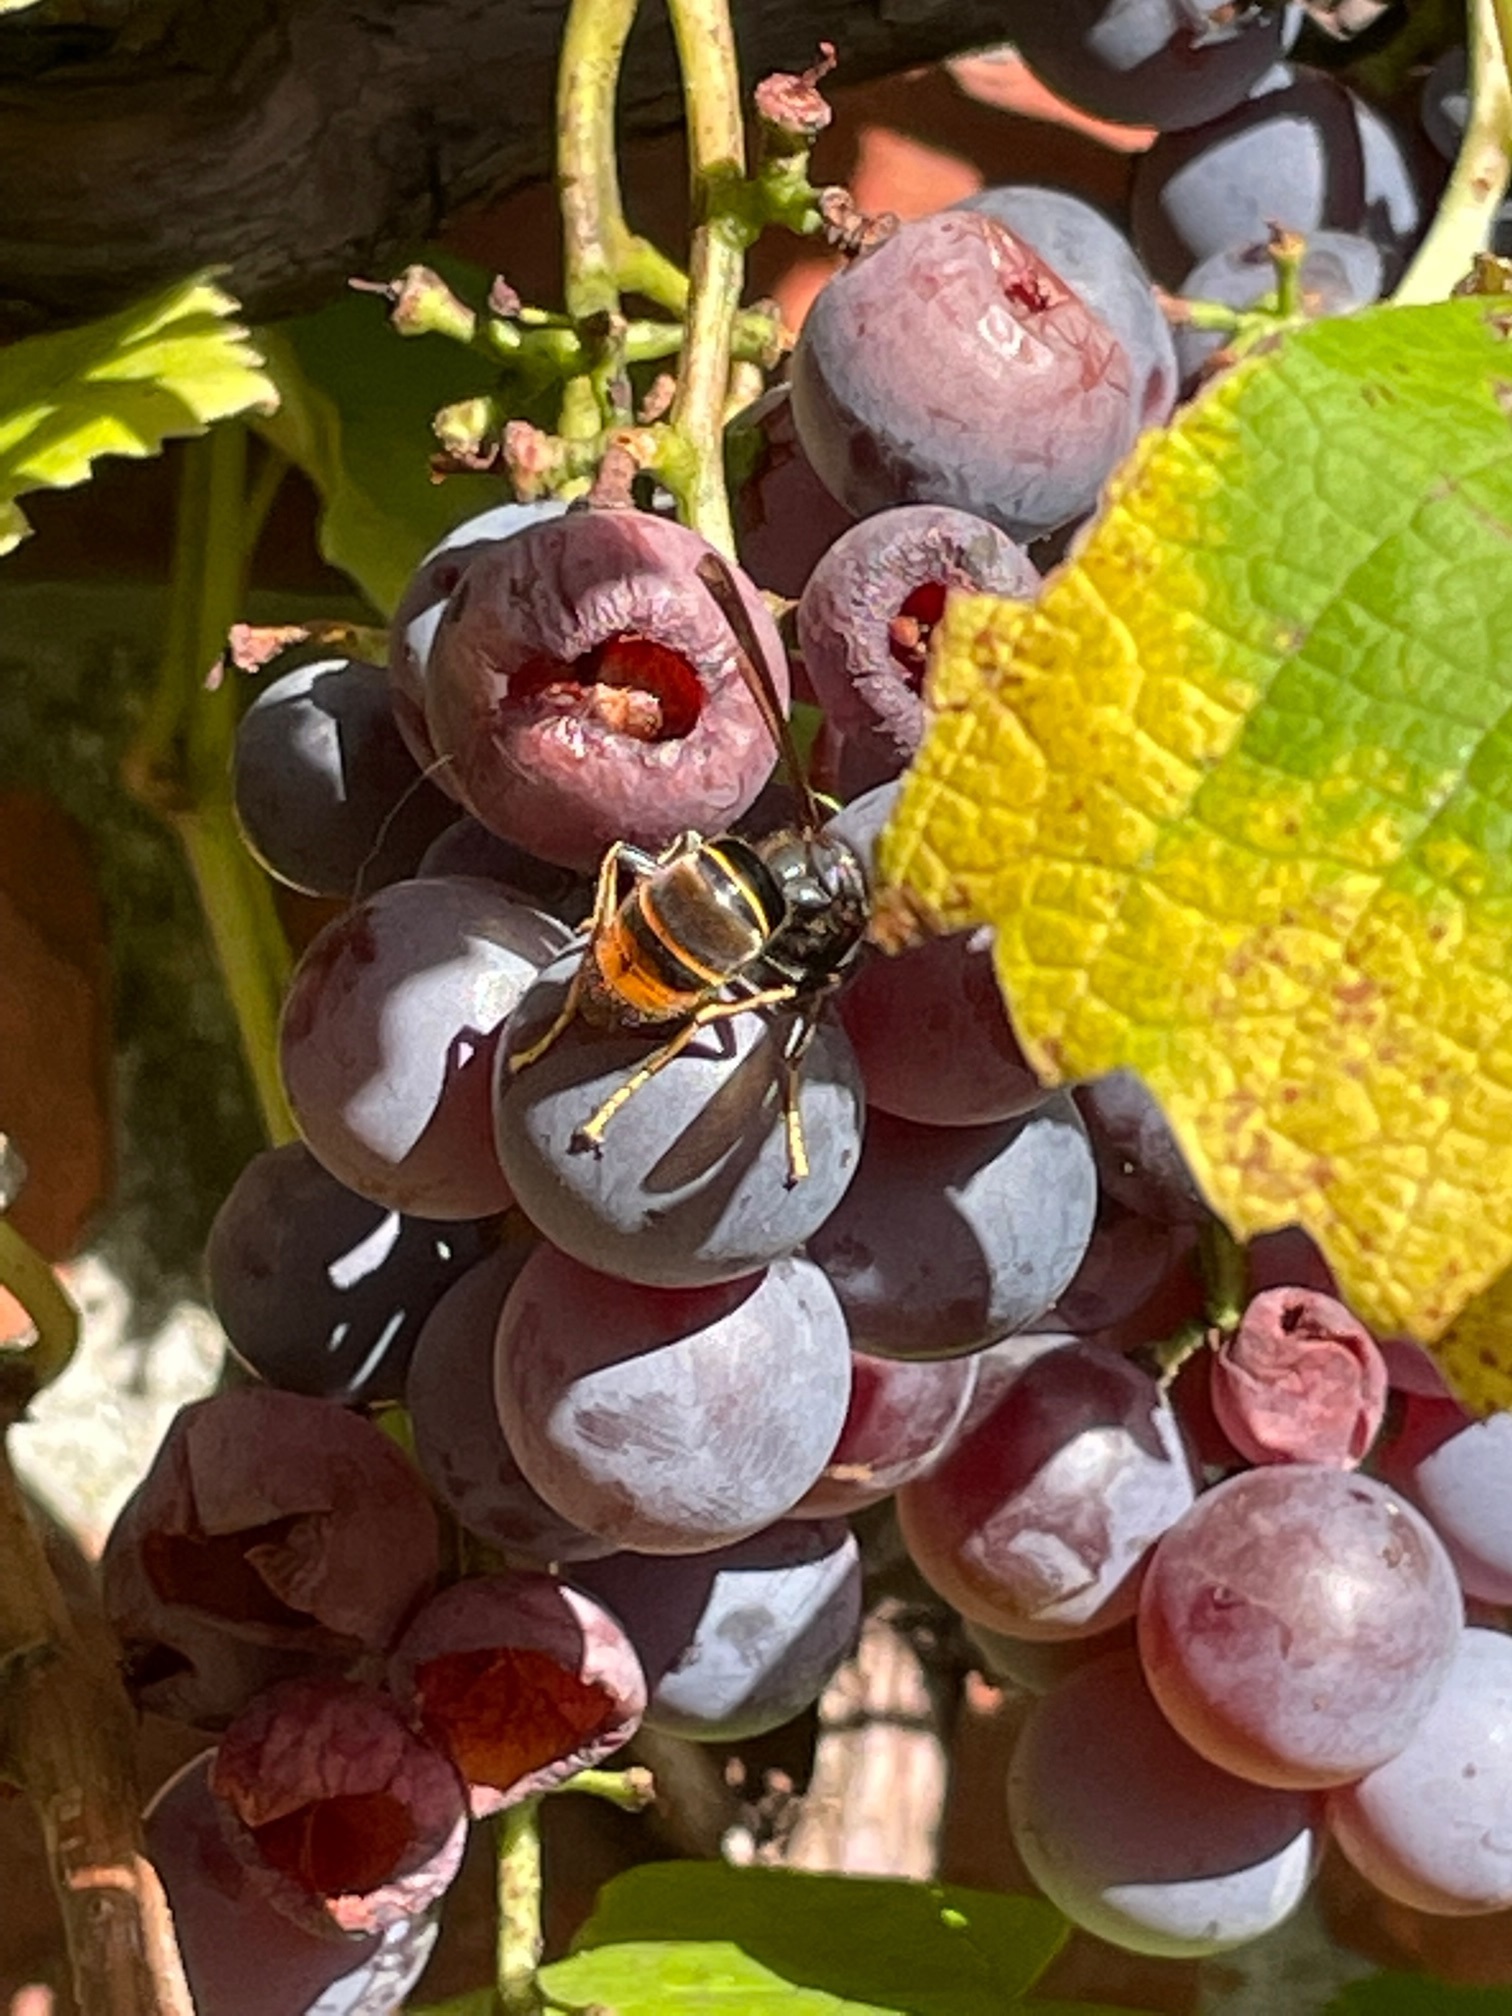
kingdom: Animalia
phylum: Arthropoda
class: Insecta
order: Hymenoptera
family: Vespidae
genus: Vespa
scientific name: Vespa velutina
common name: Asian hornet
